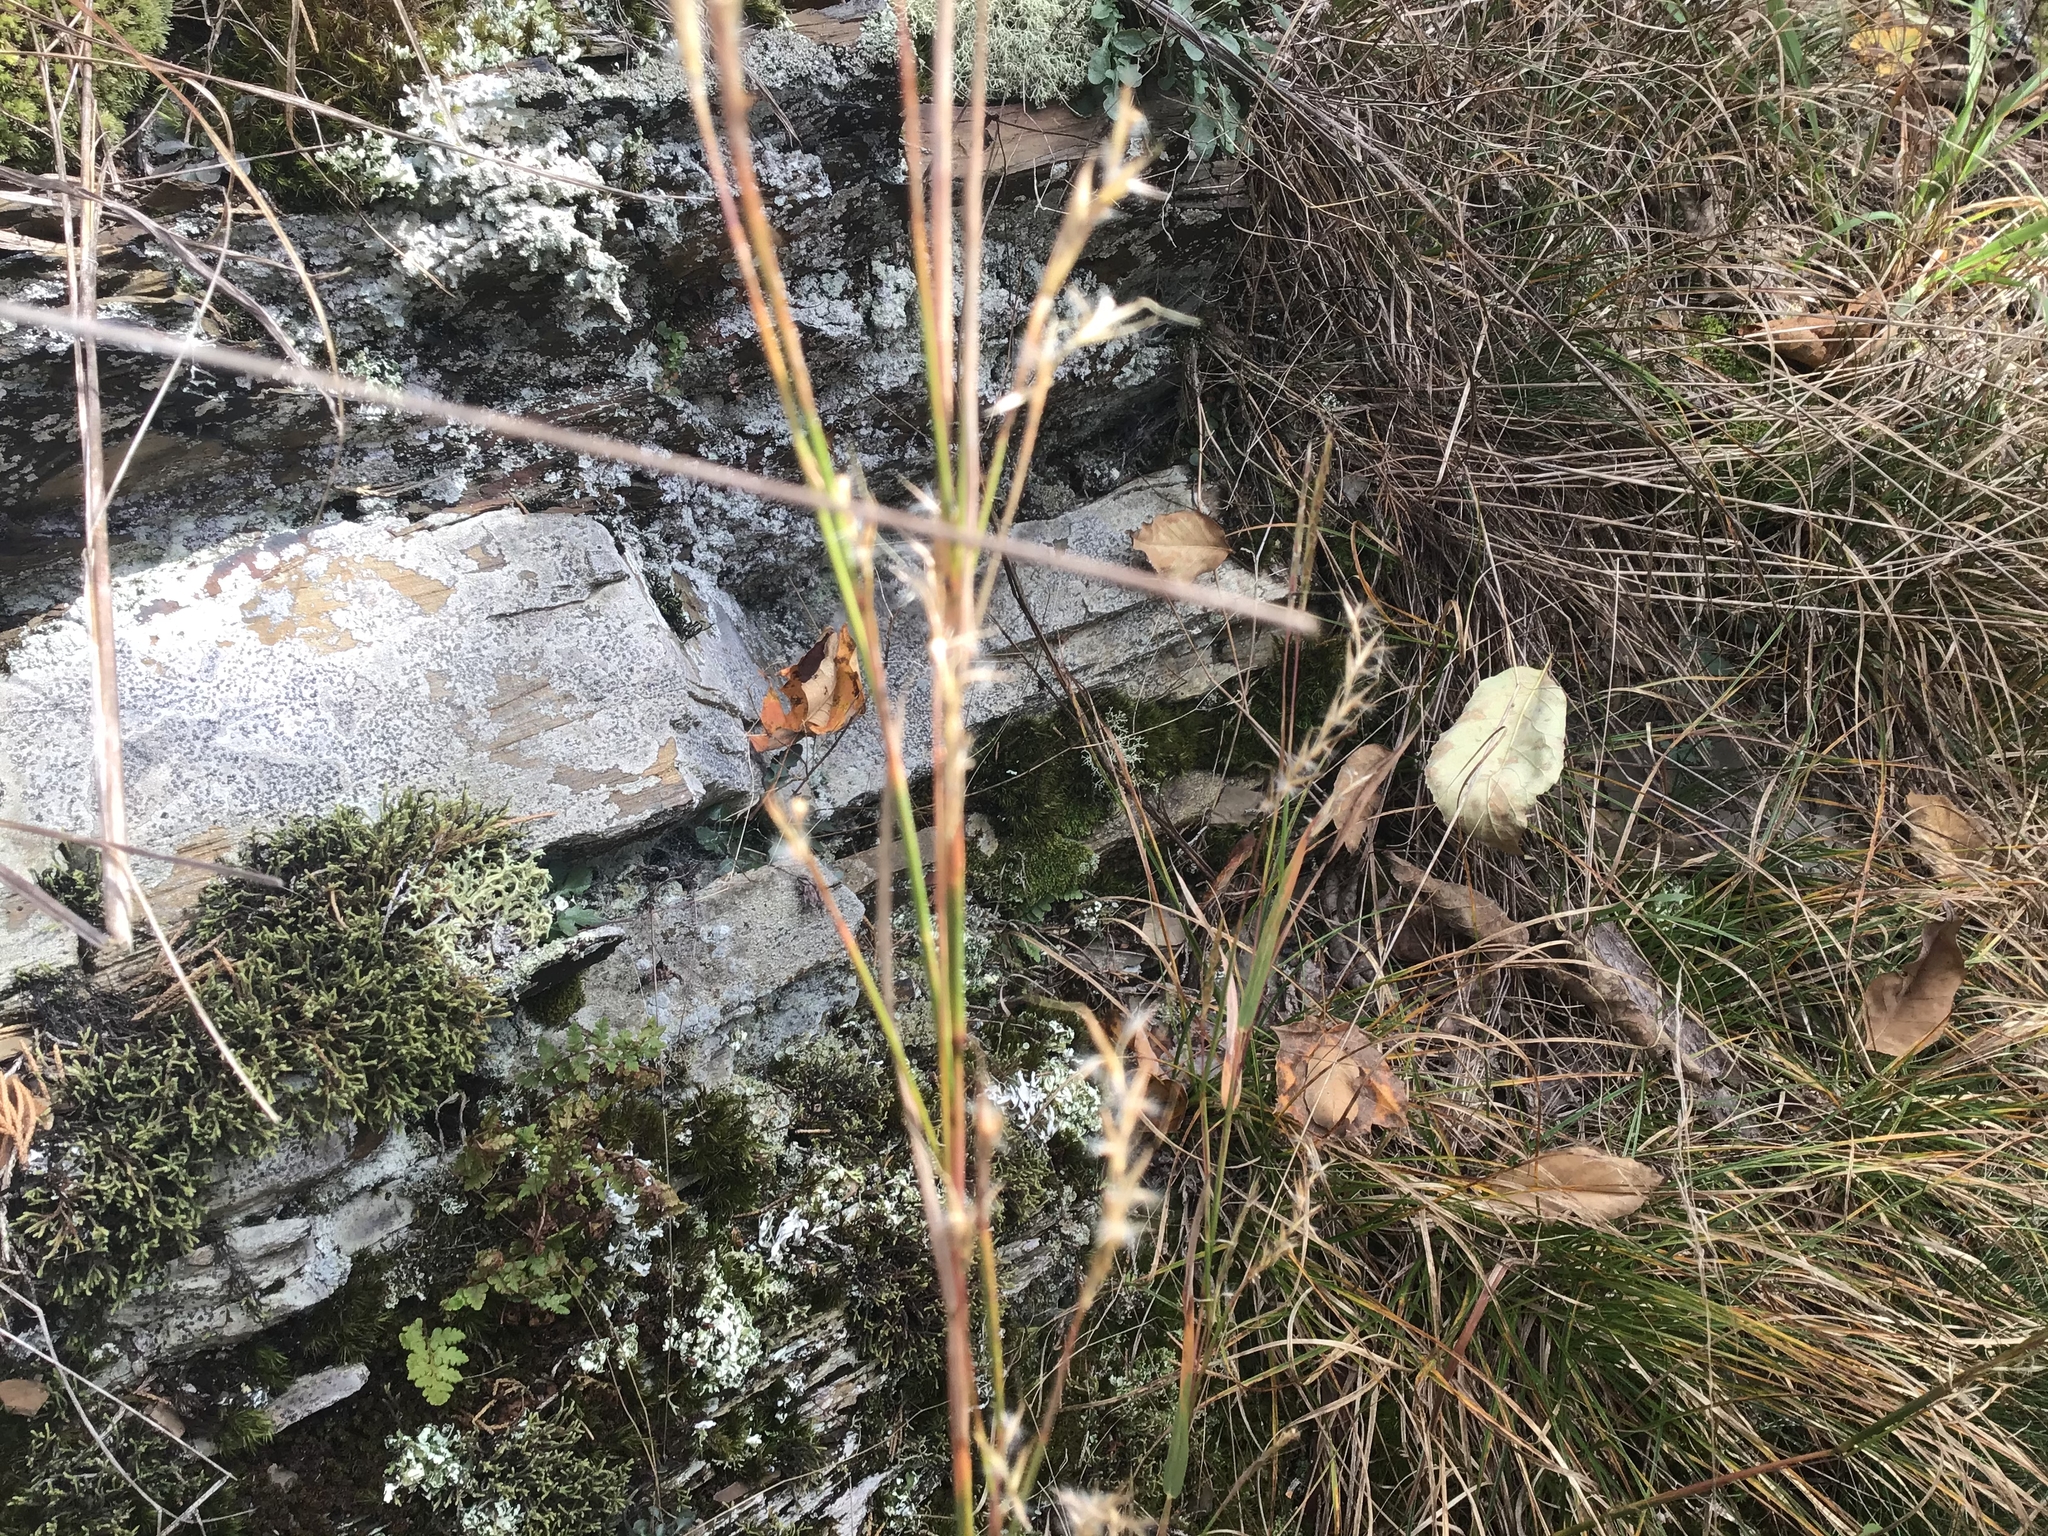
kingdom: Plantae
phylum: Tracheophyta
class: Liliopsida
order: Poales
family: Poaceae
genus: Schizachyrium
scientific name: Schizachyrium scoparium
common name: Little bluestem
